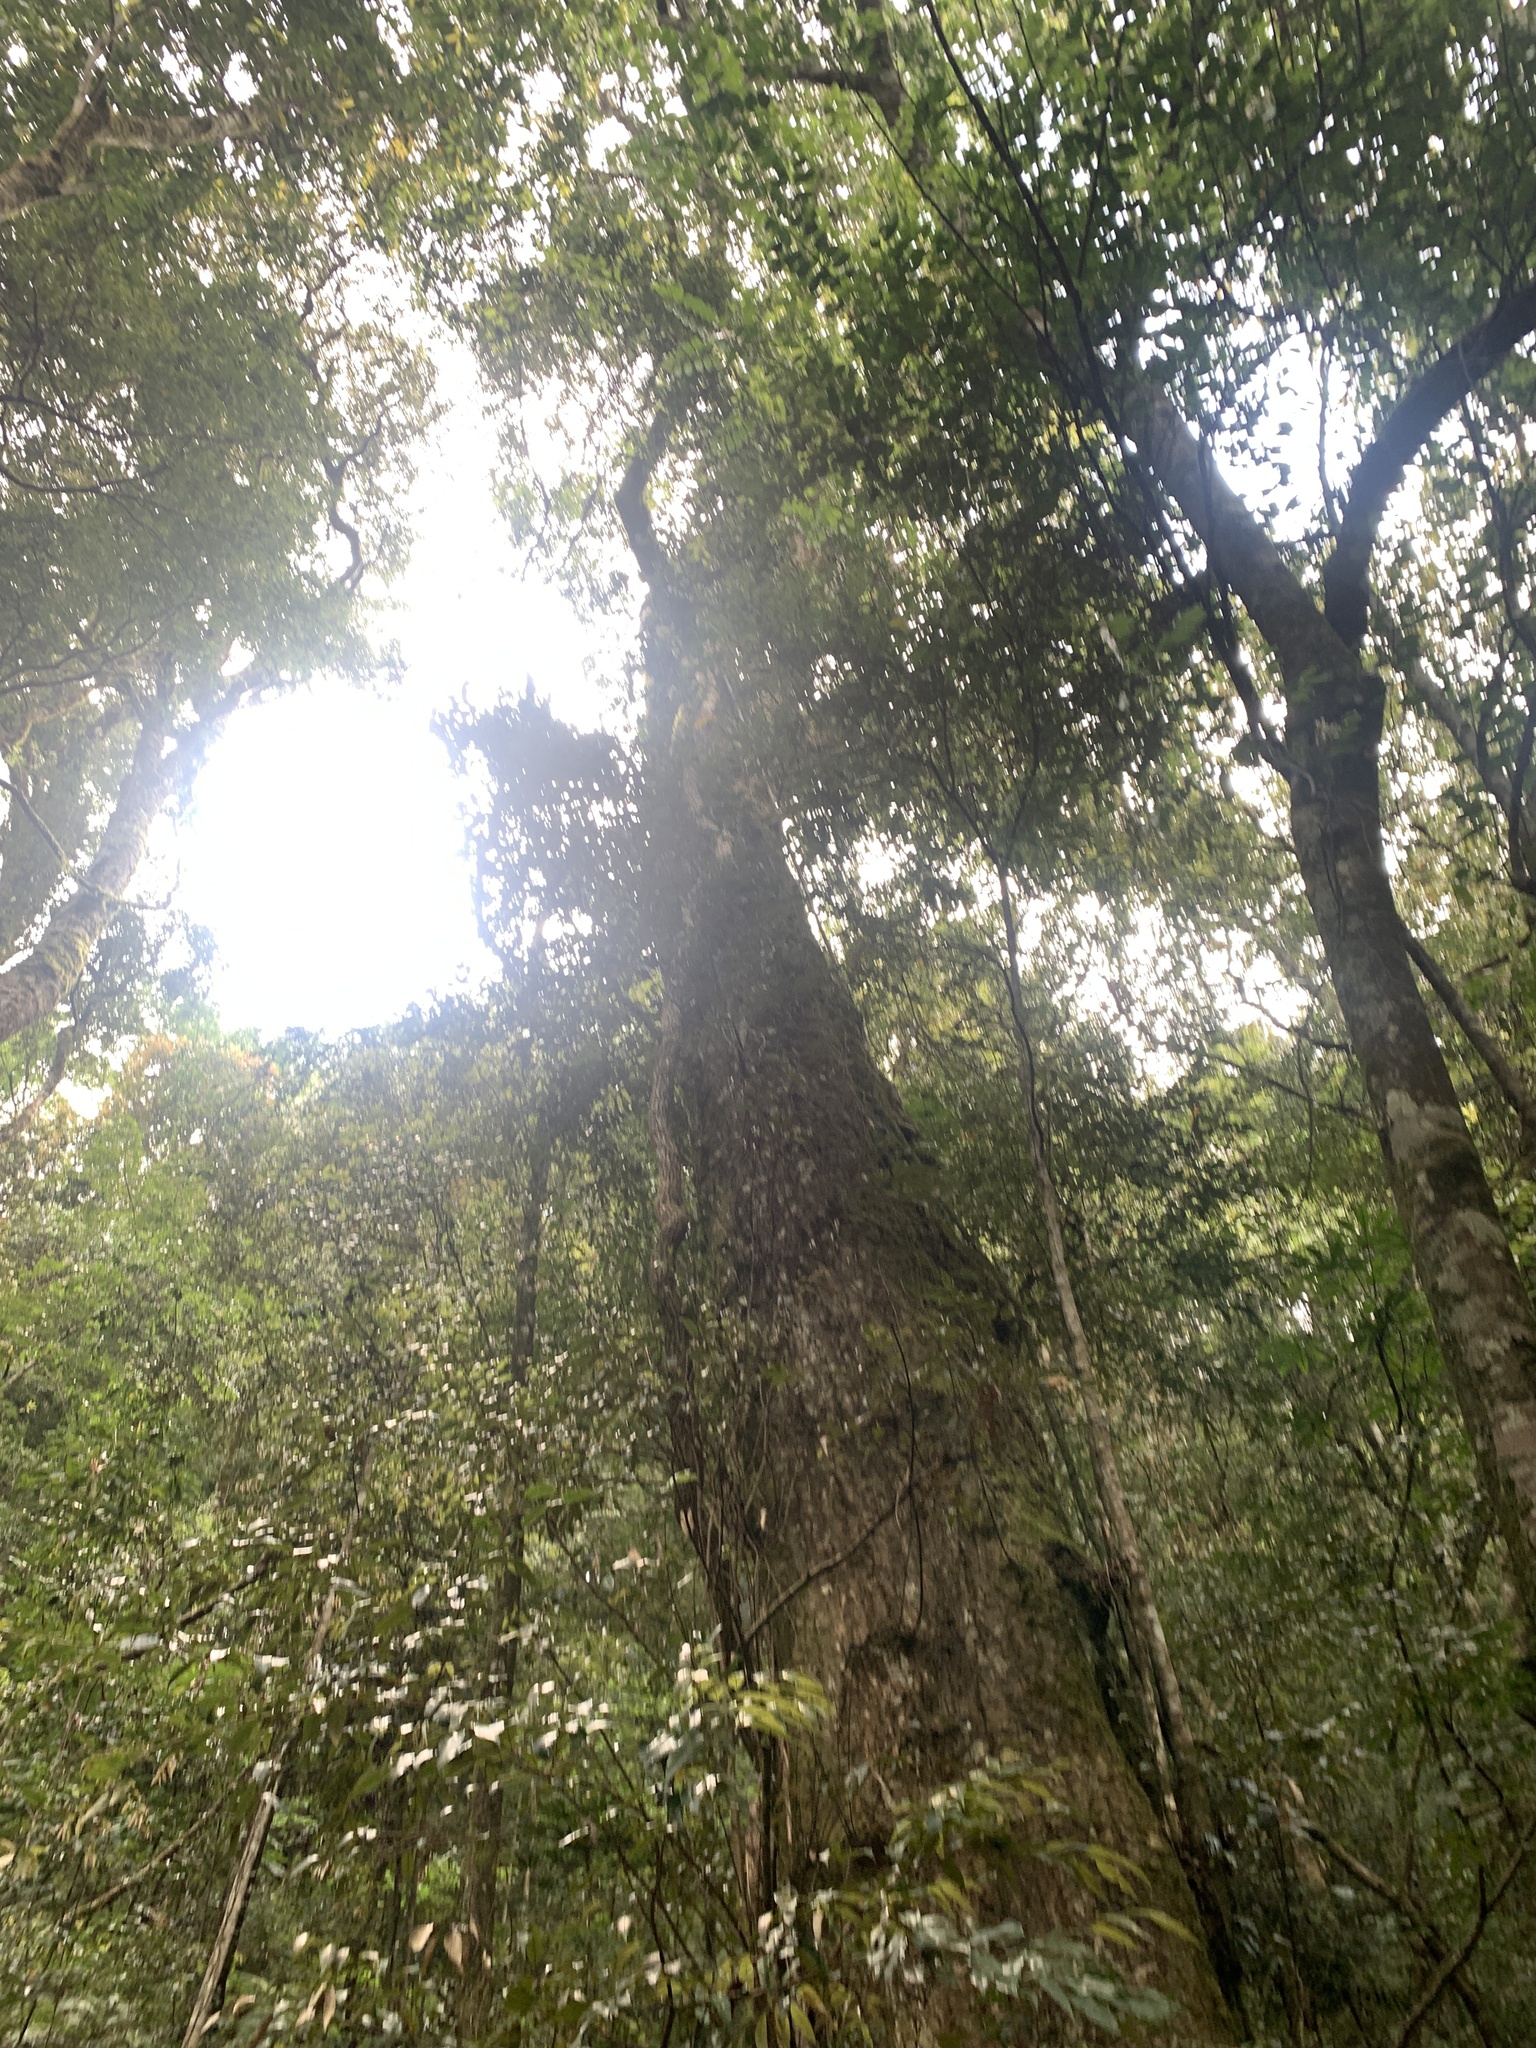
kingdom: Plantae
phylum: Tracheophyta
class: Magnoliopsida
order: Fagales
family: Fagaceae
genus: Quercus
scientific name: Quercus gilva
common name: Redbark oak
